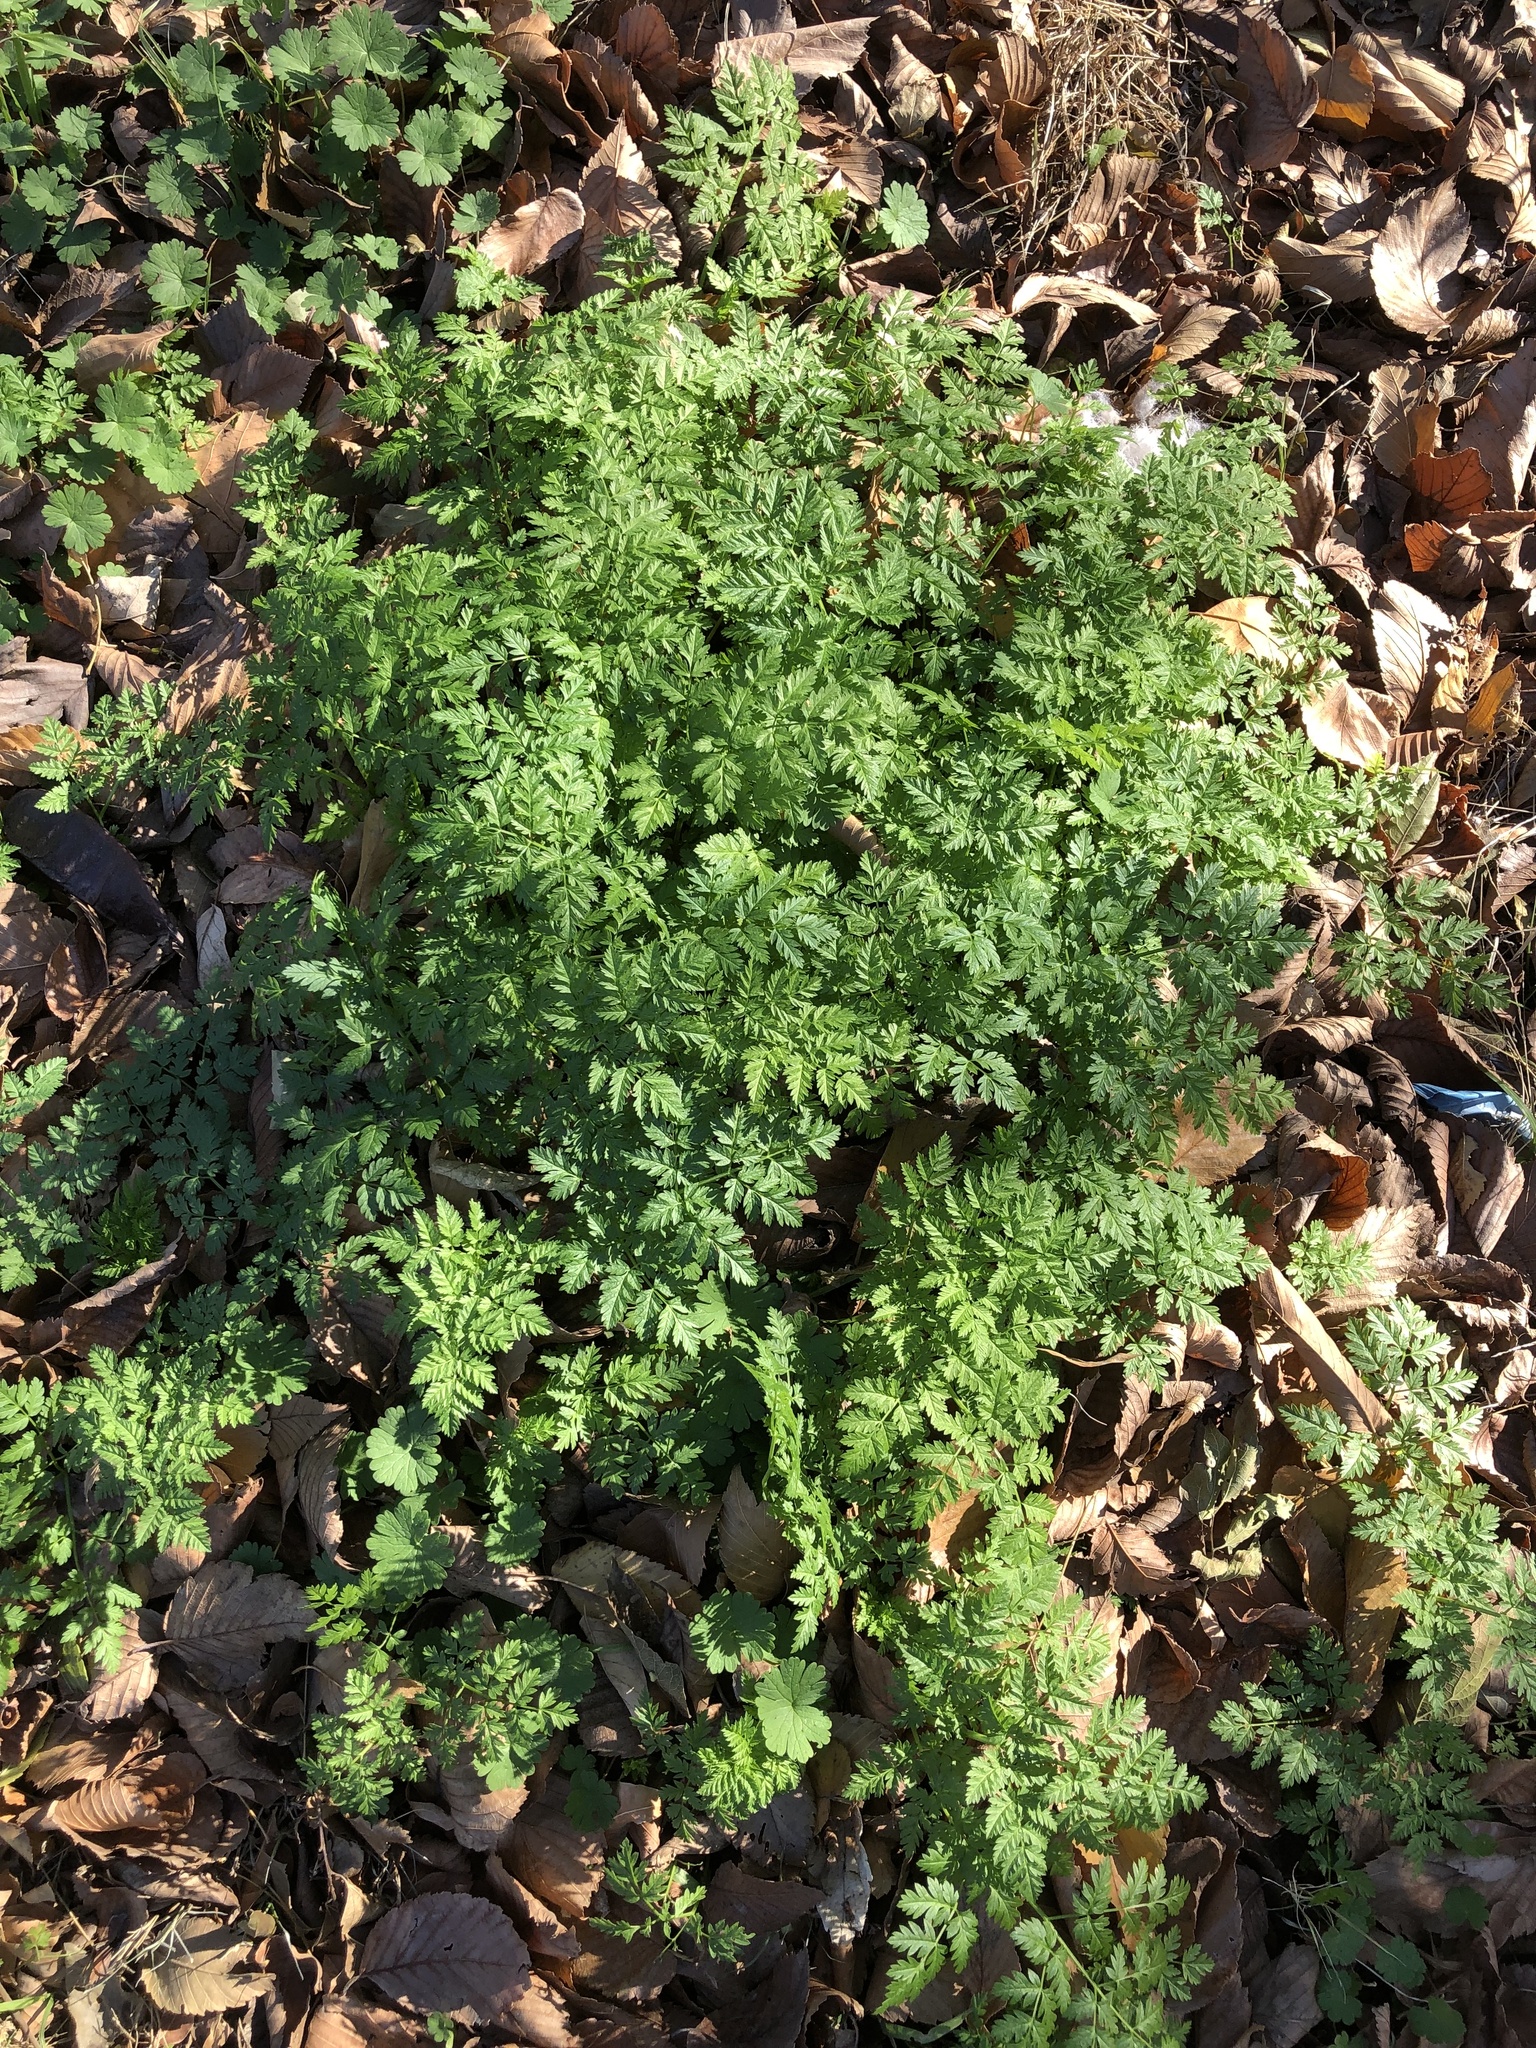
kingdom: Plantae
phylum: Tracheophyta
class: Magnoliopsida
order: Apiales
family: Apiaceae
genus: Conium
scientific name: Conium maculatum
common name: Hemlock
